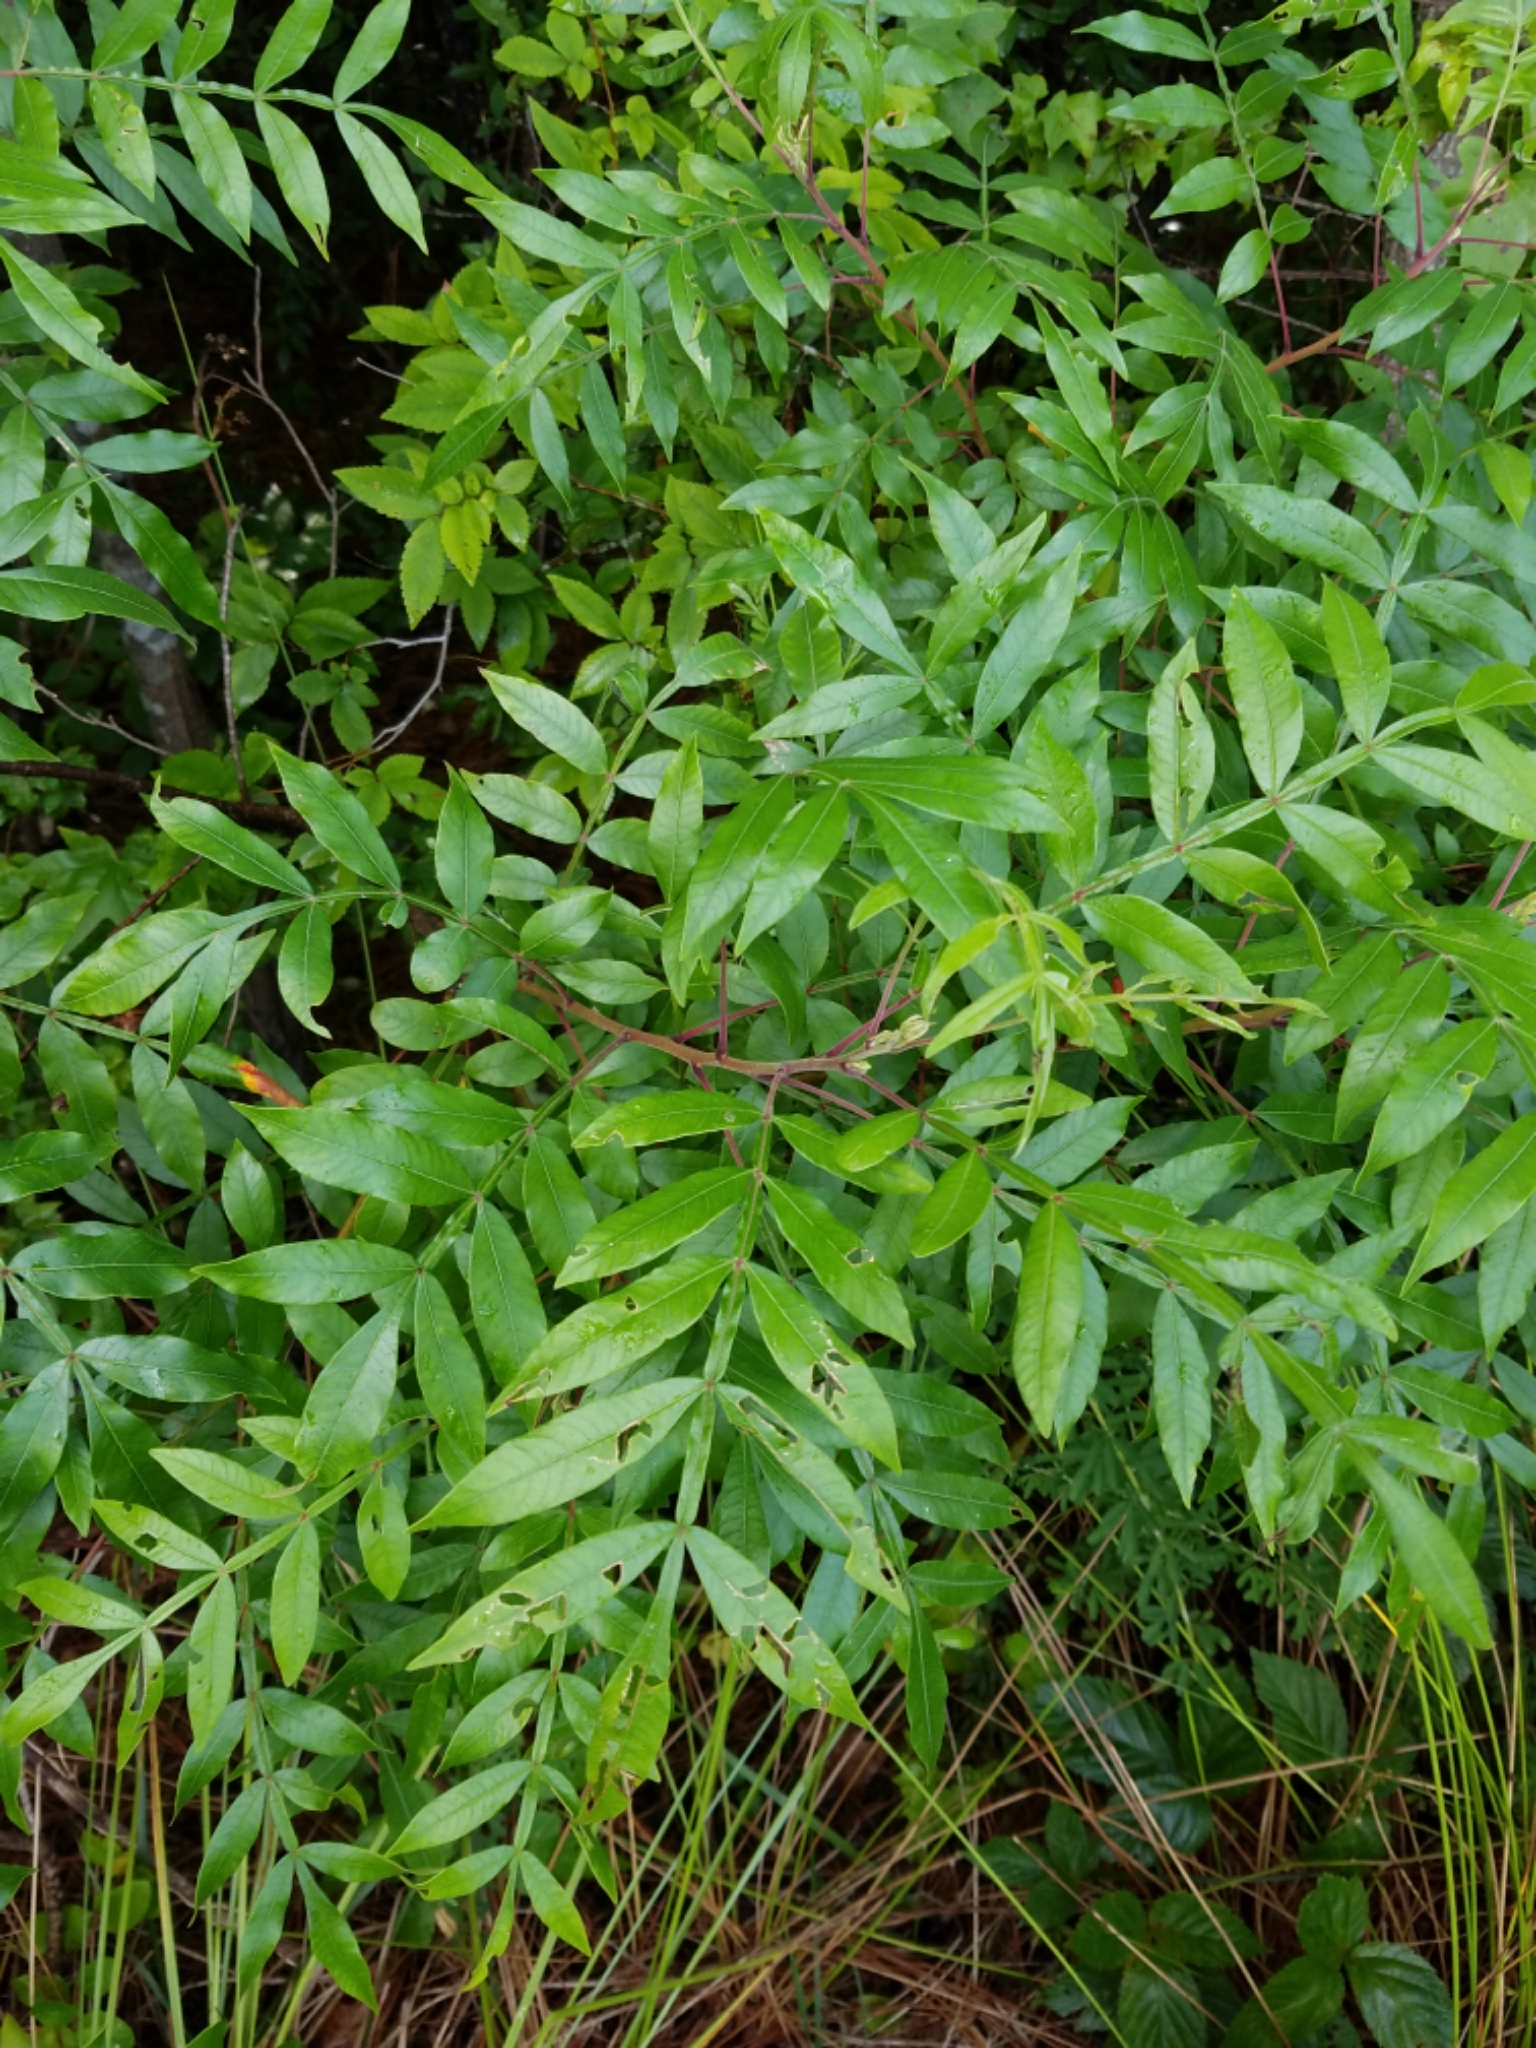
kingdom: Plantae
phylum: Tracheophyta
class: Magnoliopsida
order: Sapindales
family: Anacardiaceae
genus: Rhus
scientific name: Rhus copallina
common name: Shining sumac
